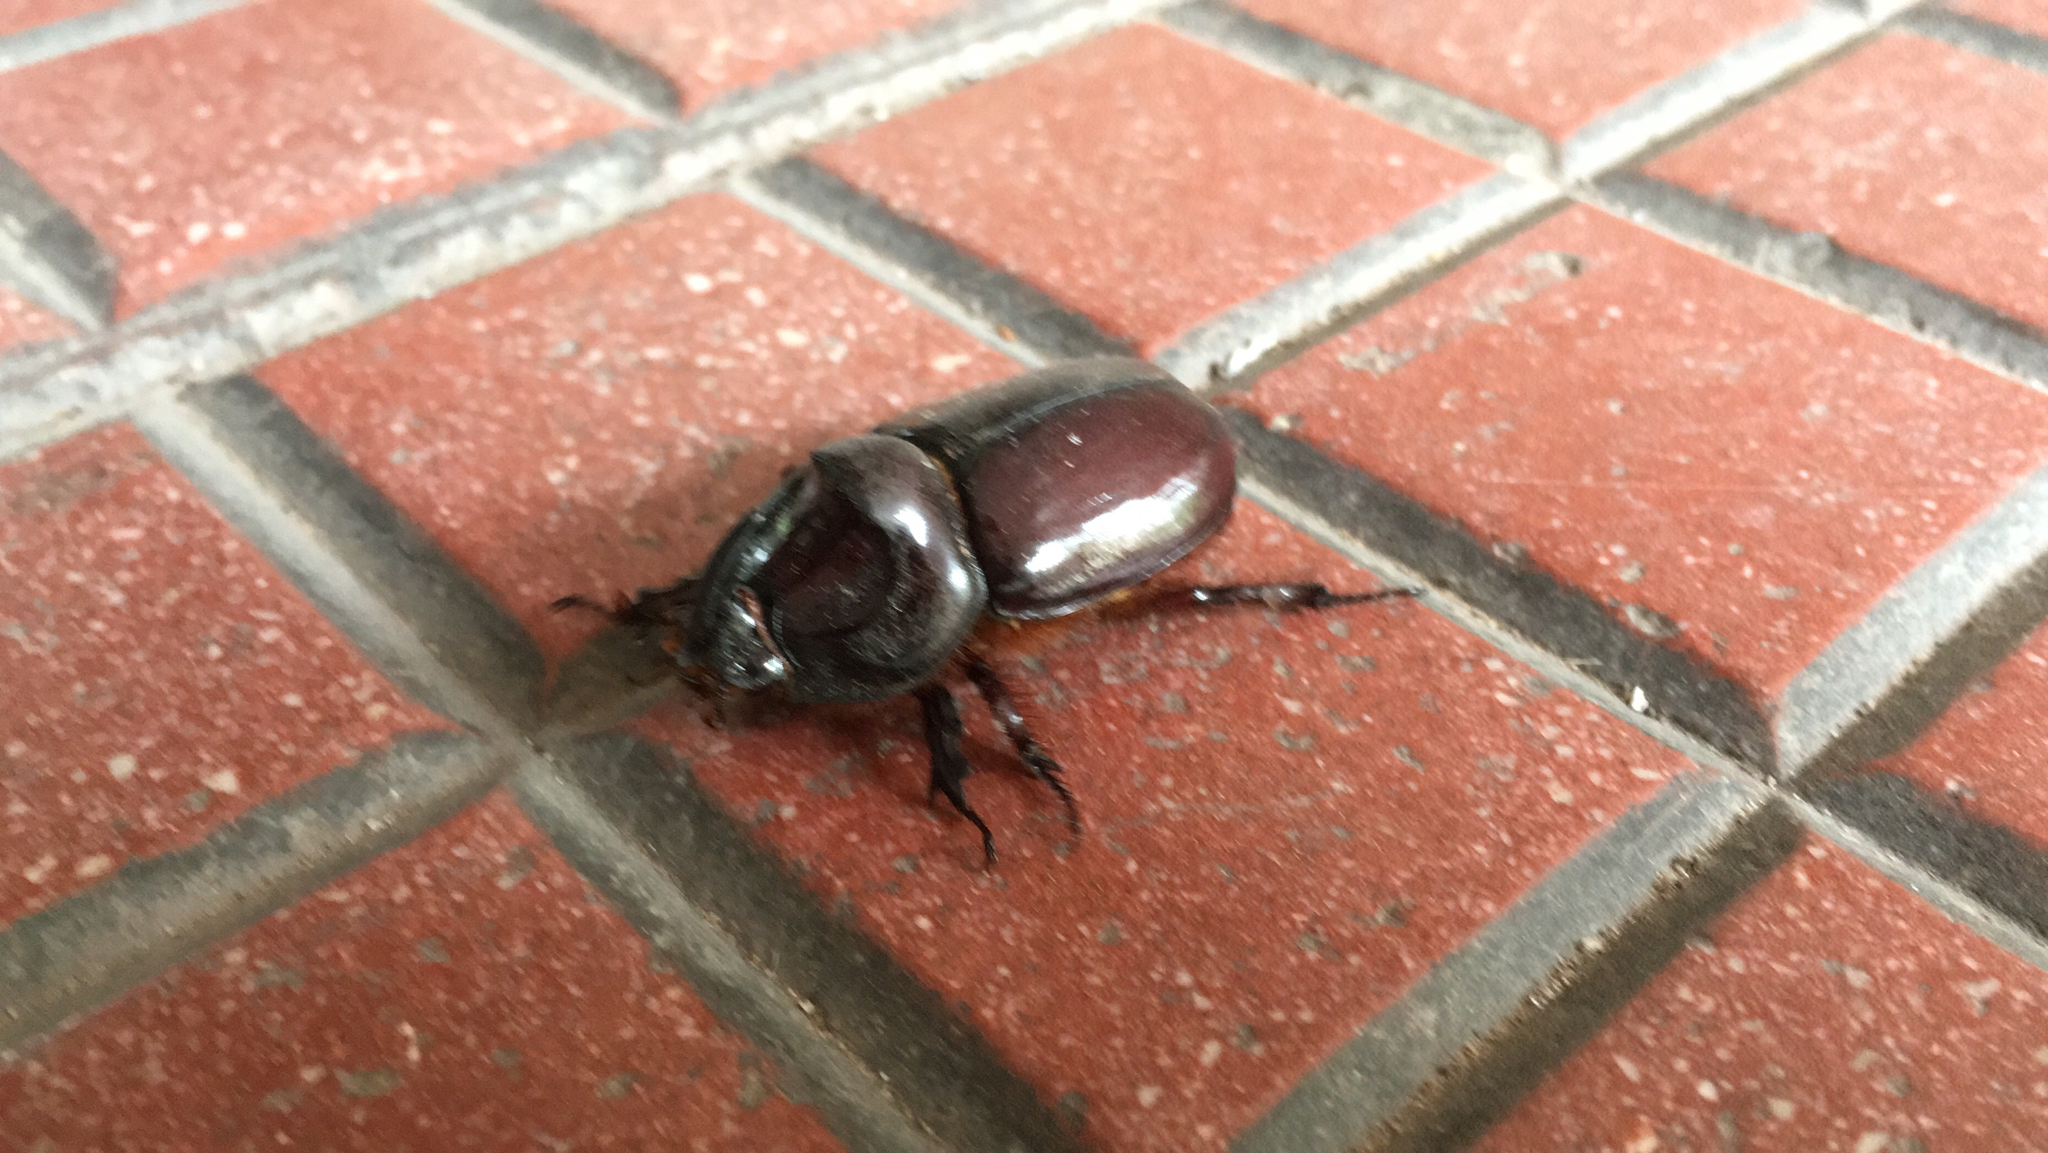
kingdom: Animalia
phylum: Arthropoda
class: Insecta
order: Coleoptera
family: Scarabaeidae
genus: Oryctes
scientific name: Oryctes nasicornis
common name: European rhinoceros beetle
